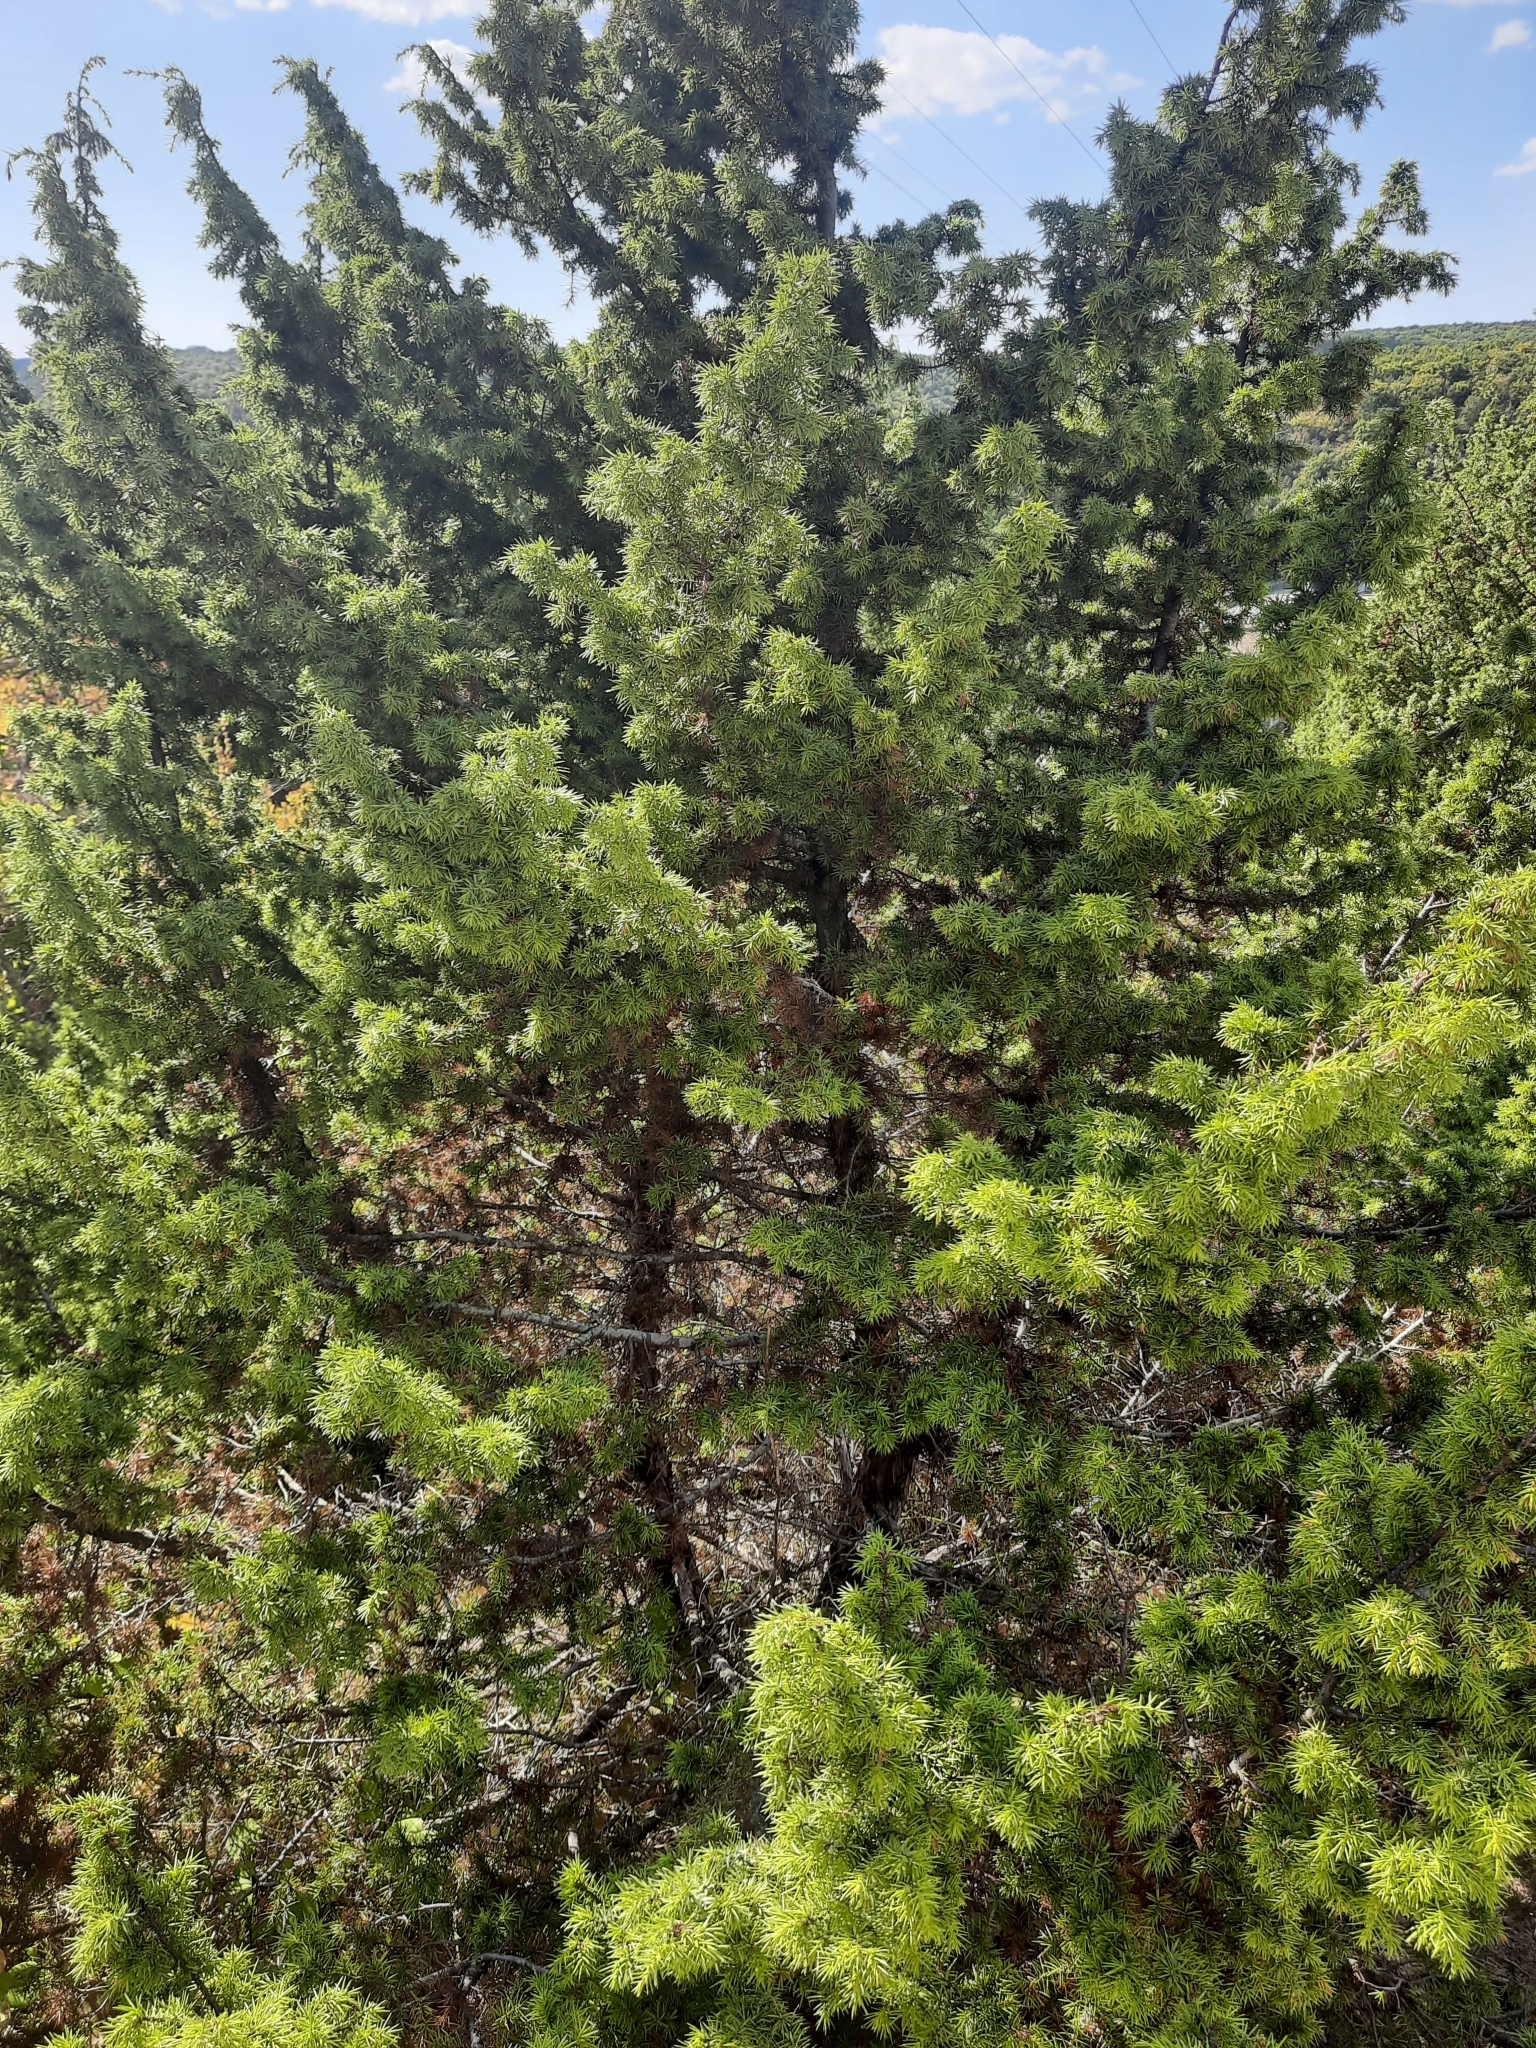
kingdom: Plantae
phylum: Tracheophyta
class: Pinopsida
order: Pinales
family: Cupressaceae
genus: Juniperus
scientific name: Juniperus oxycedrus
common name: Prickly juniper
